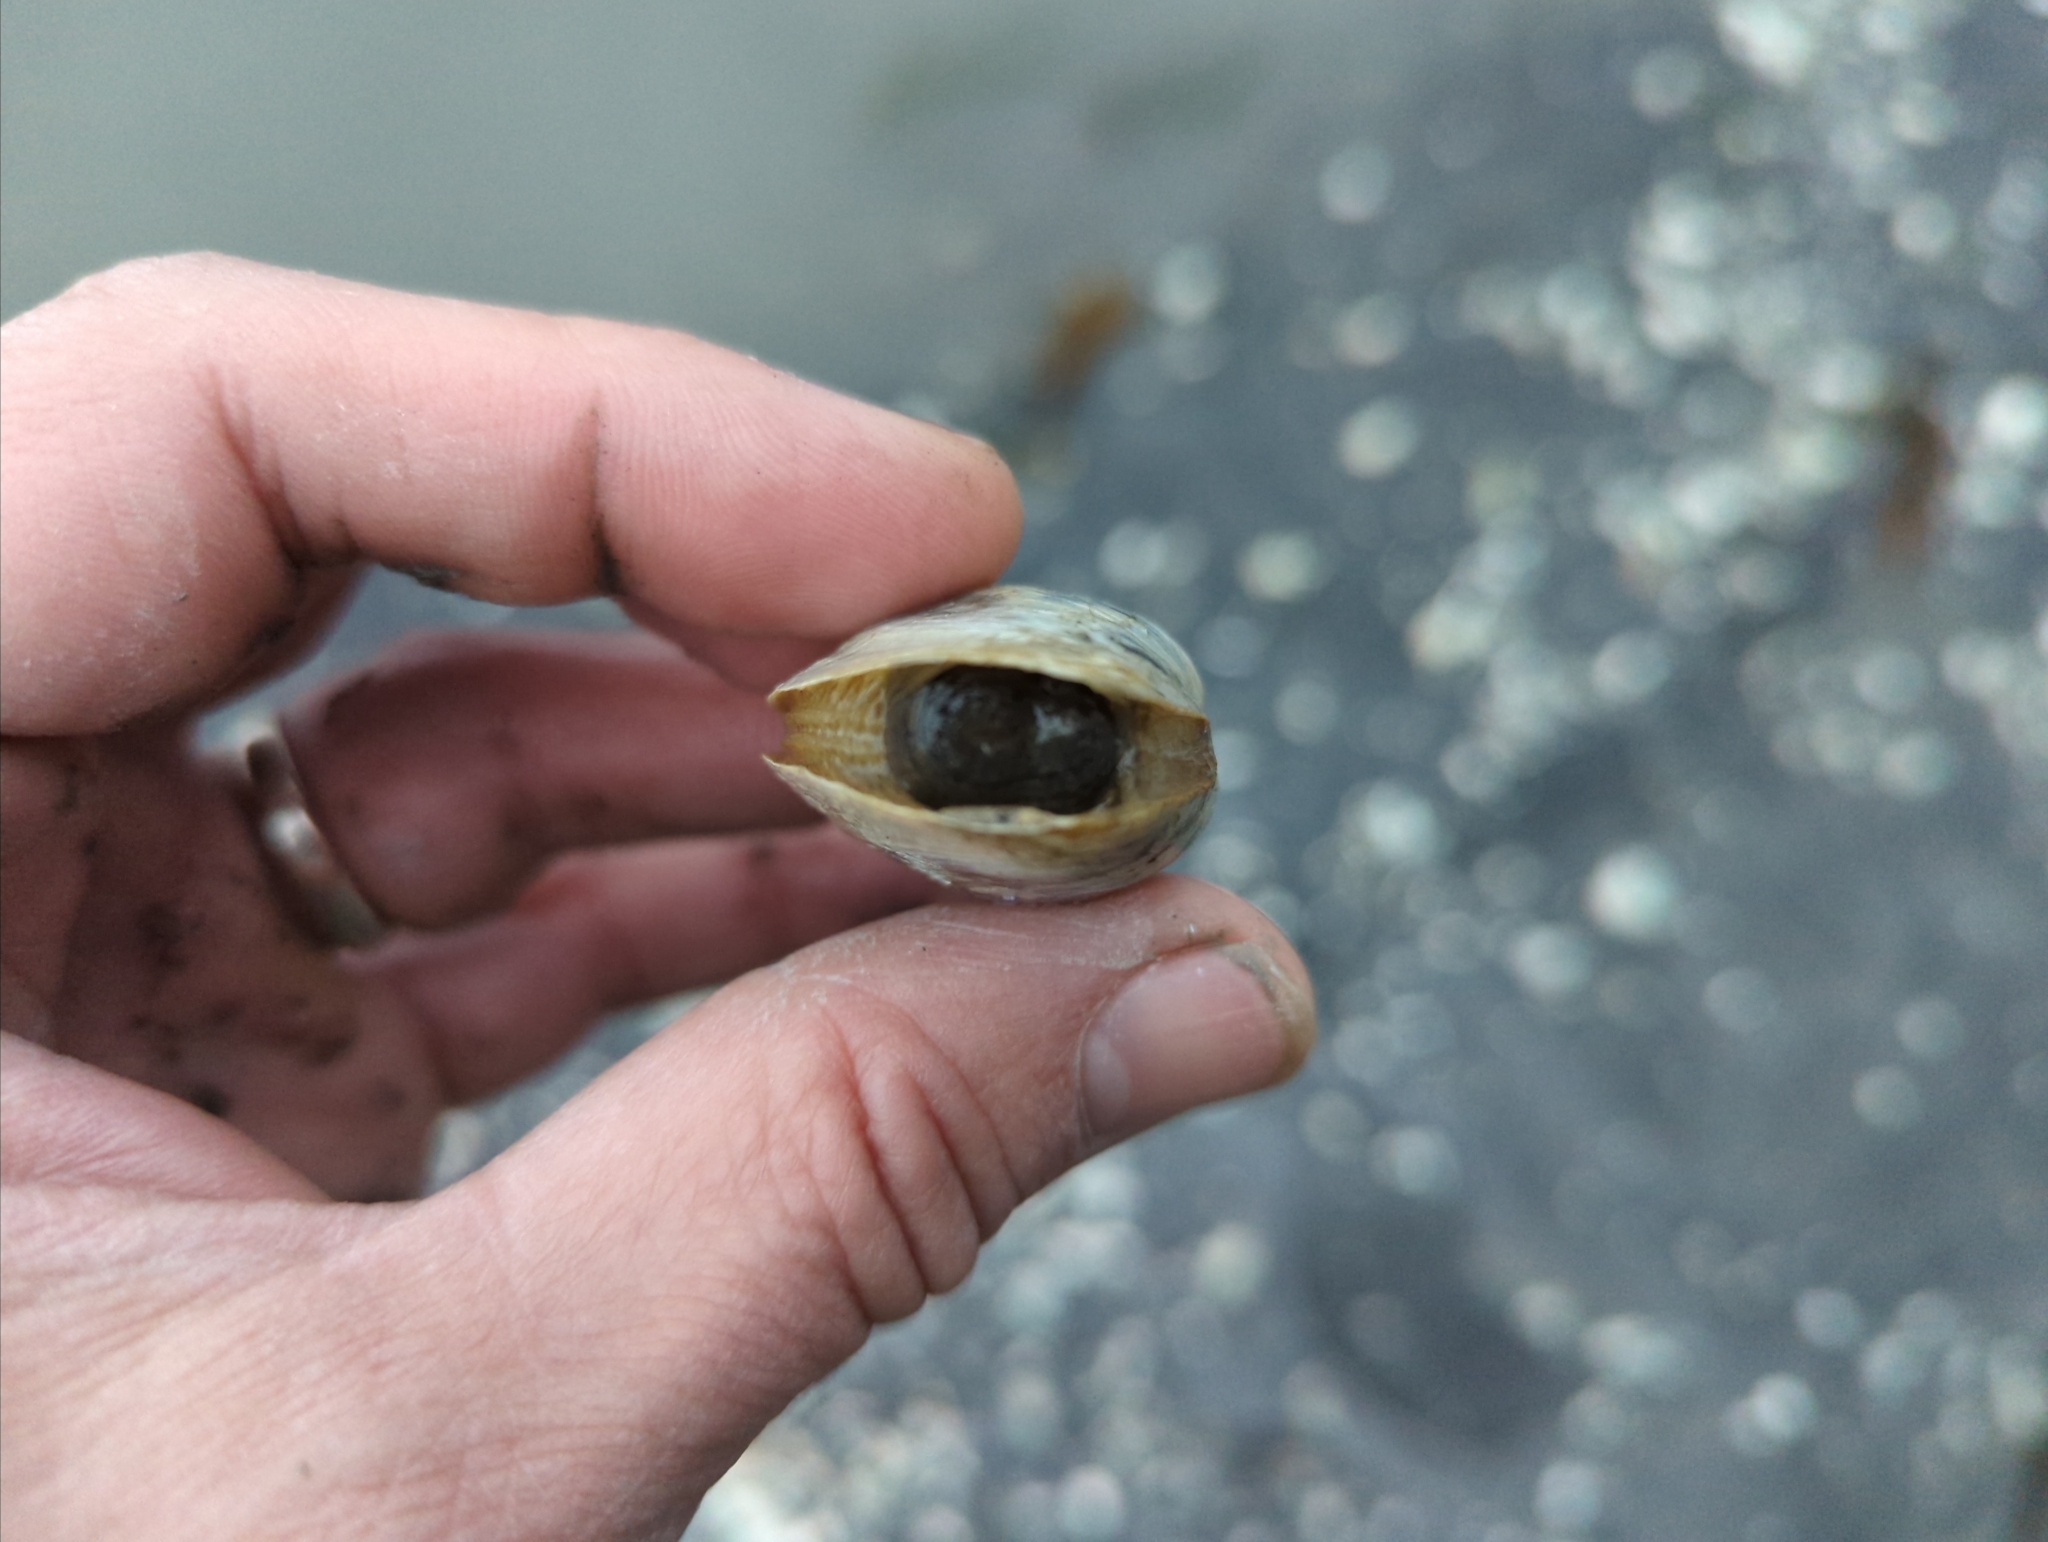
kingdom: Animalia
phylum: Mollusca
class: Bivalvia
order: Myida
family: Myidae
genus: Mya
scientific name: Mya
